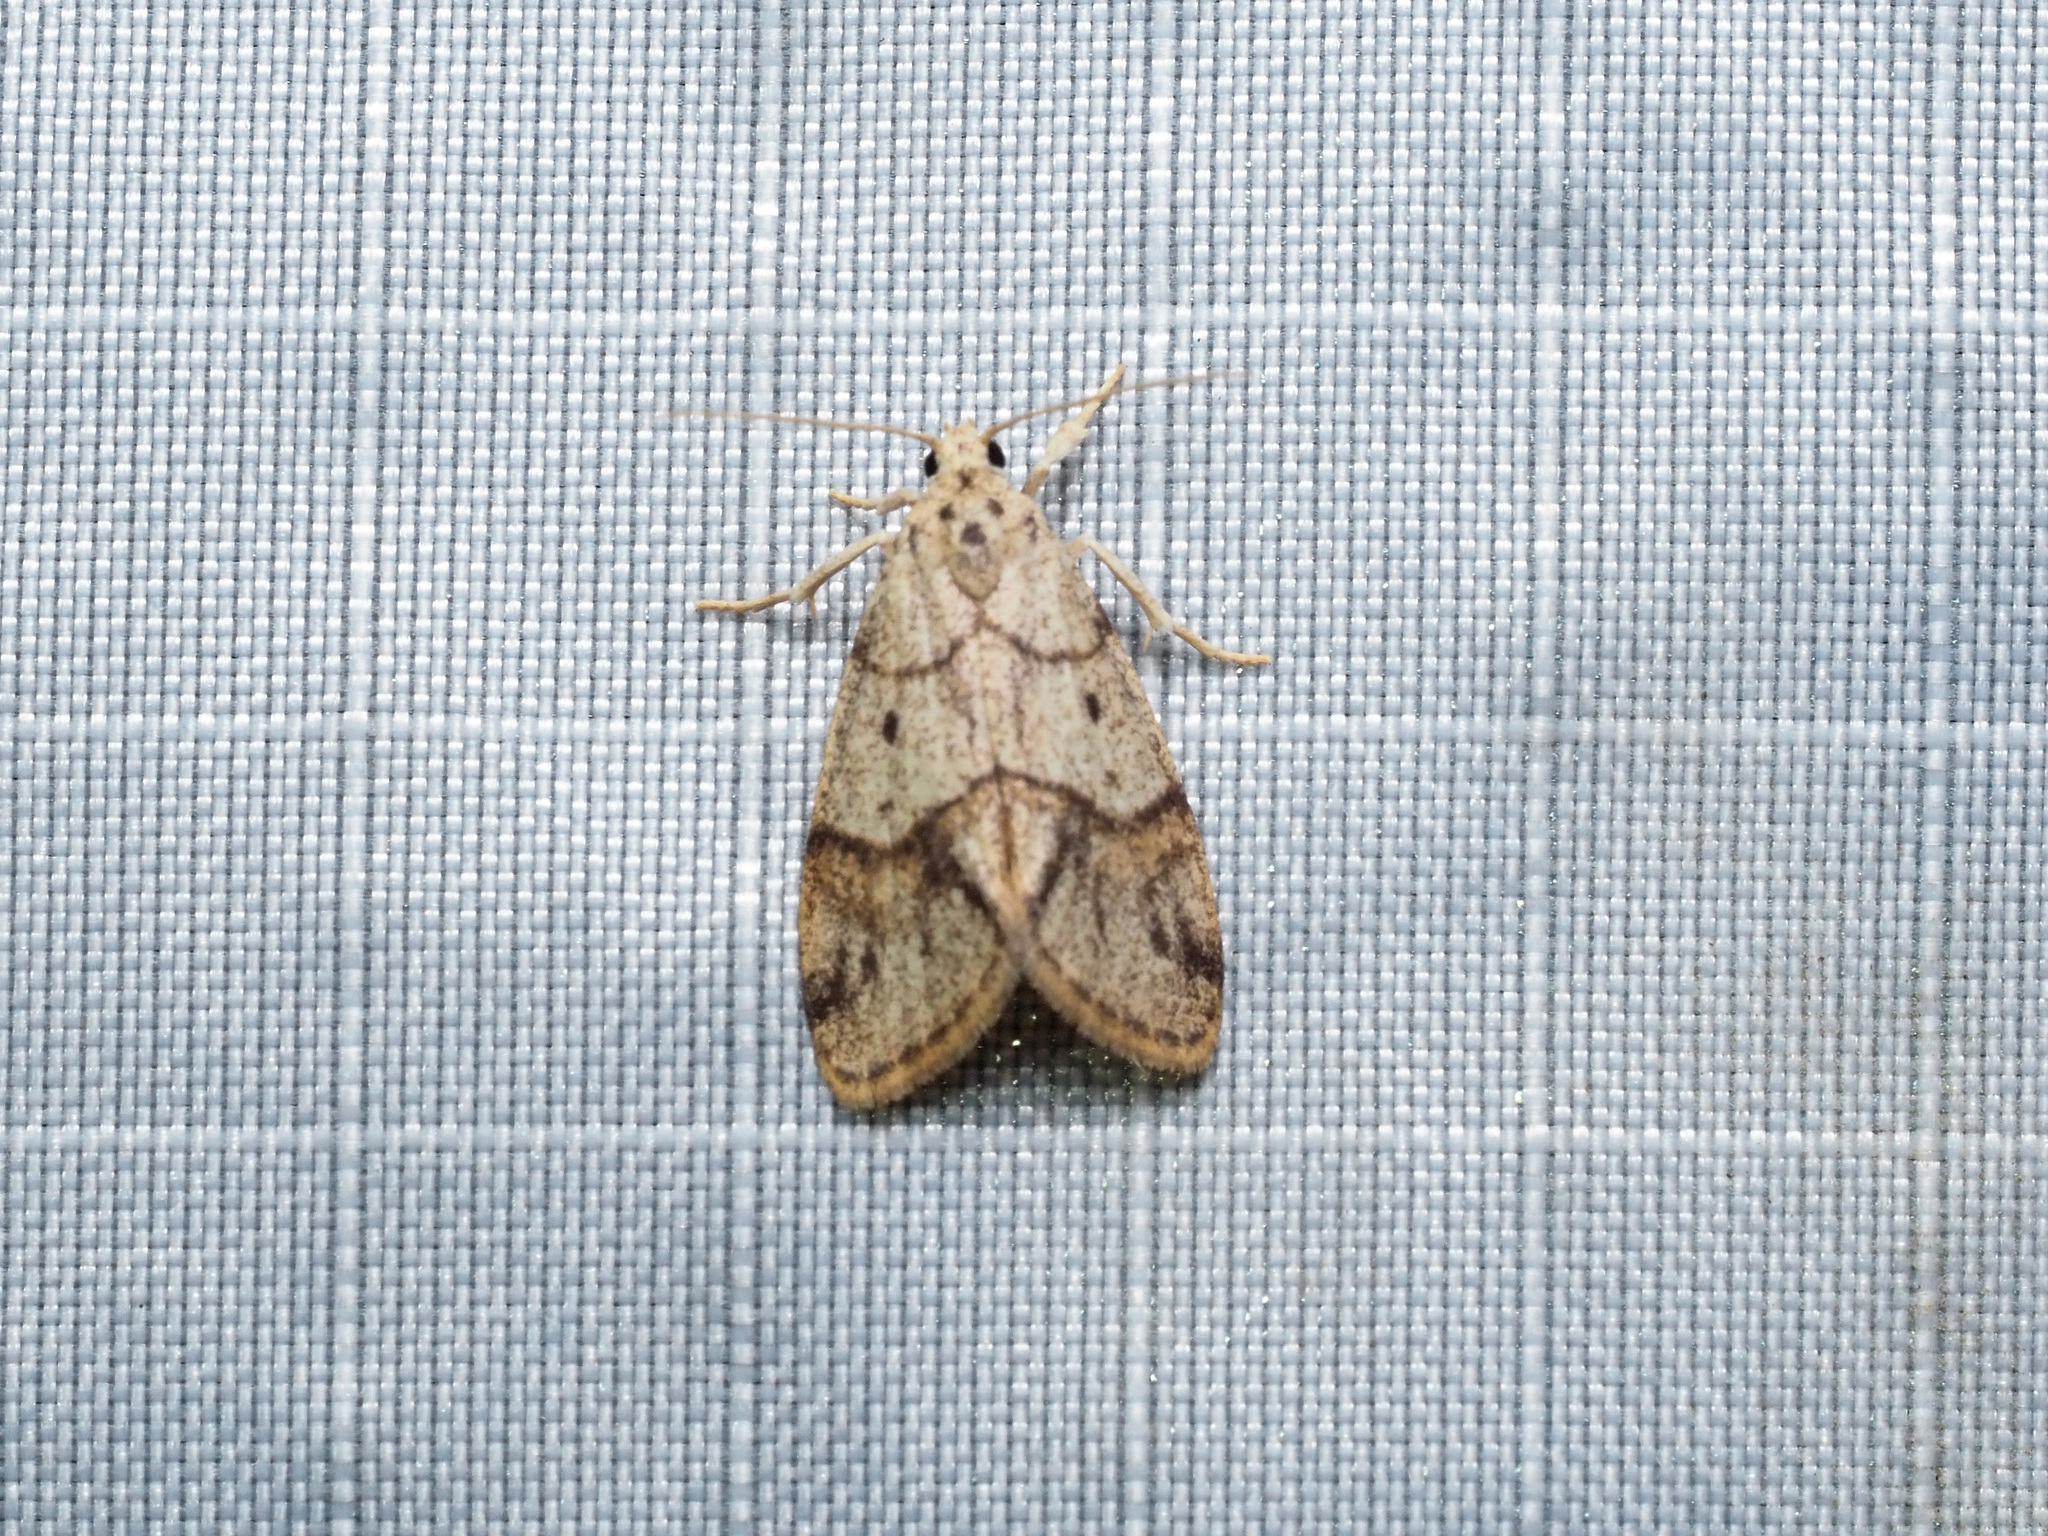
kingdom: Animalia
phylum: Arthropoda
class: Insecta
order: Lepidoptera
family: Erebidae
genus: Holocraspedon
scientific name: Holocraspedon bilineata
